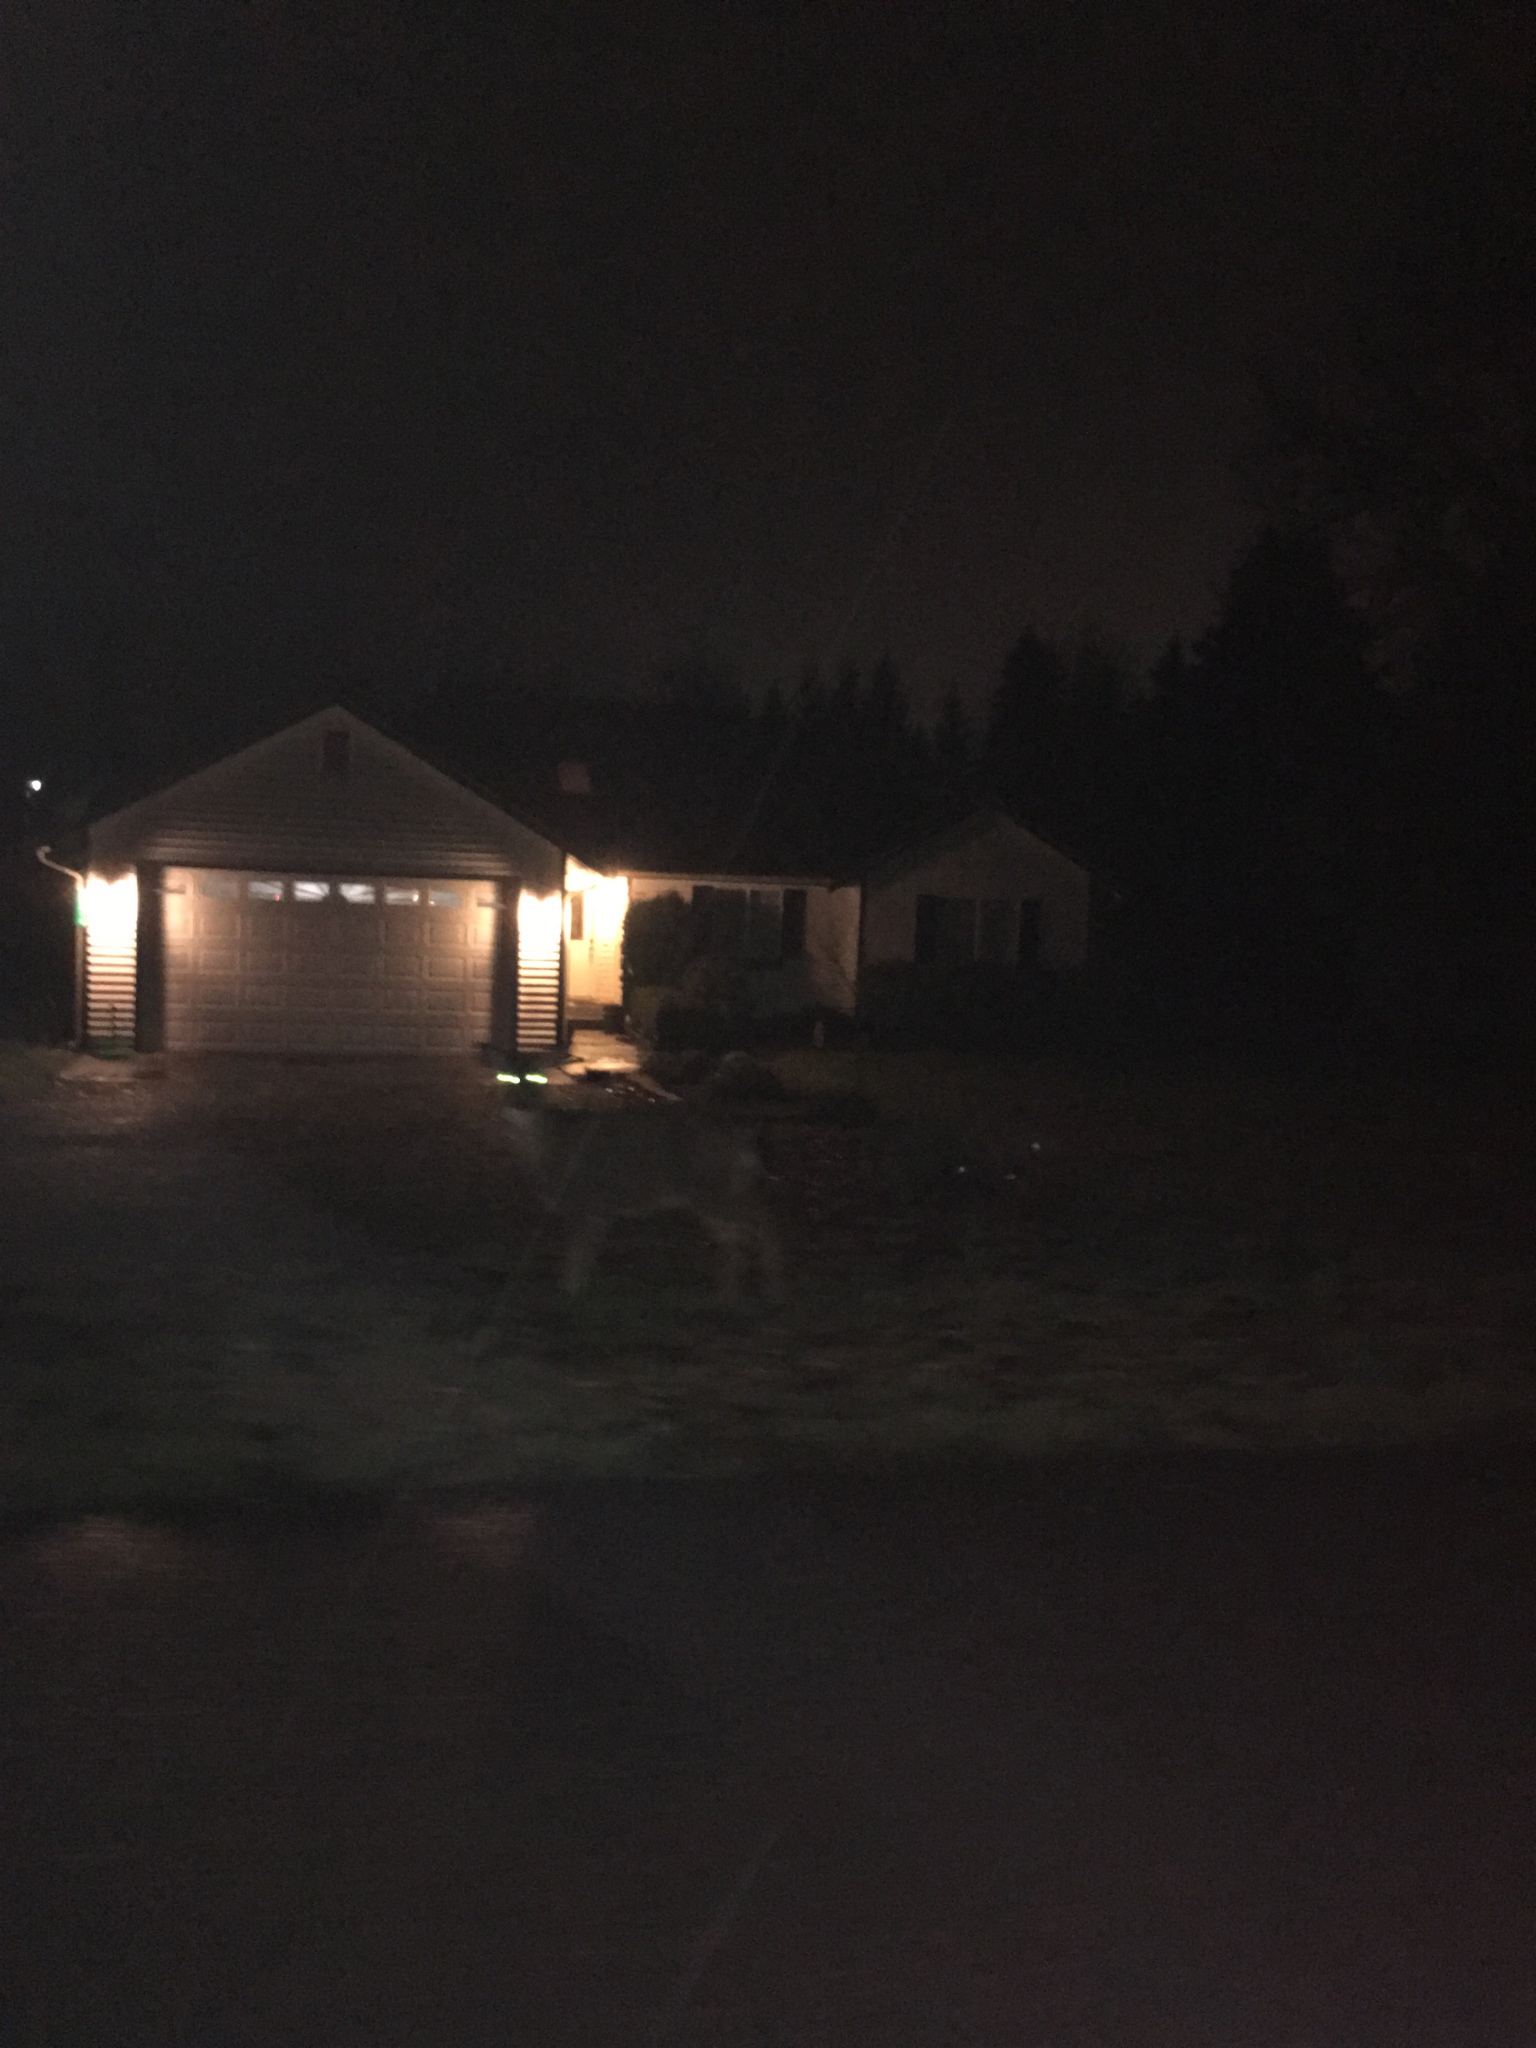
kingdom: Animalia
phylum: Chordata
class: Mammalia
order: Artiodactyla
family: Cervidae
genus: Odocoileus
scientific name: Odocoileus hemionus
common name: Mule deer
